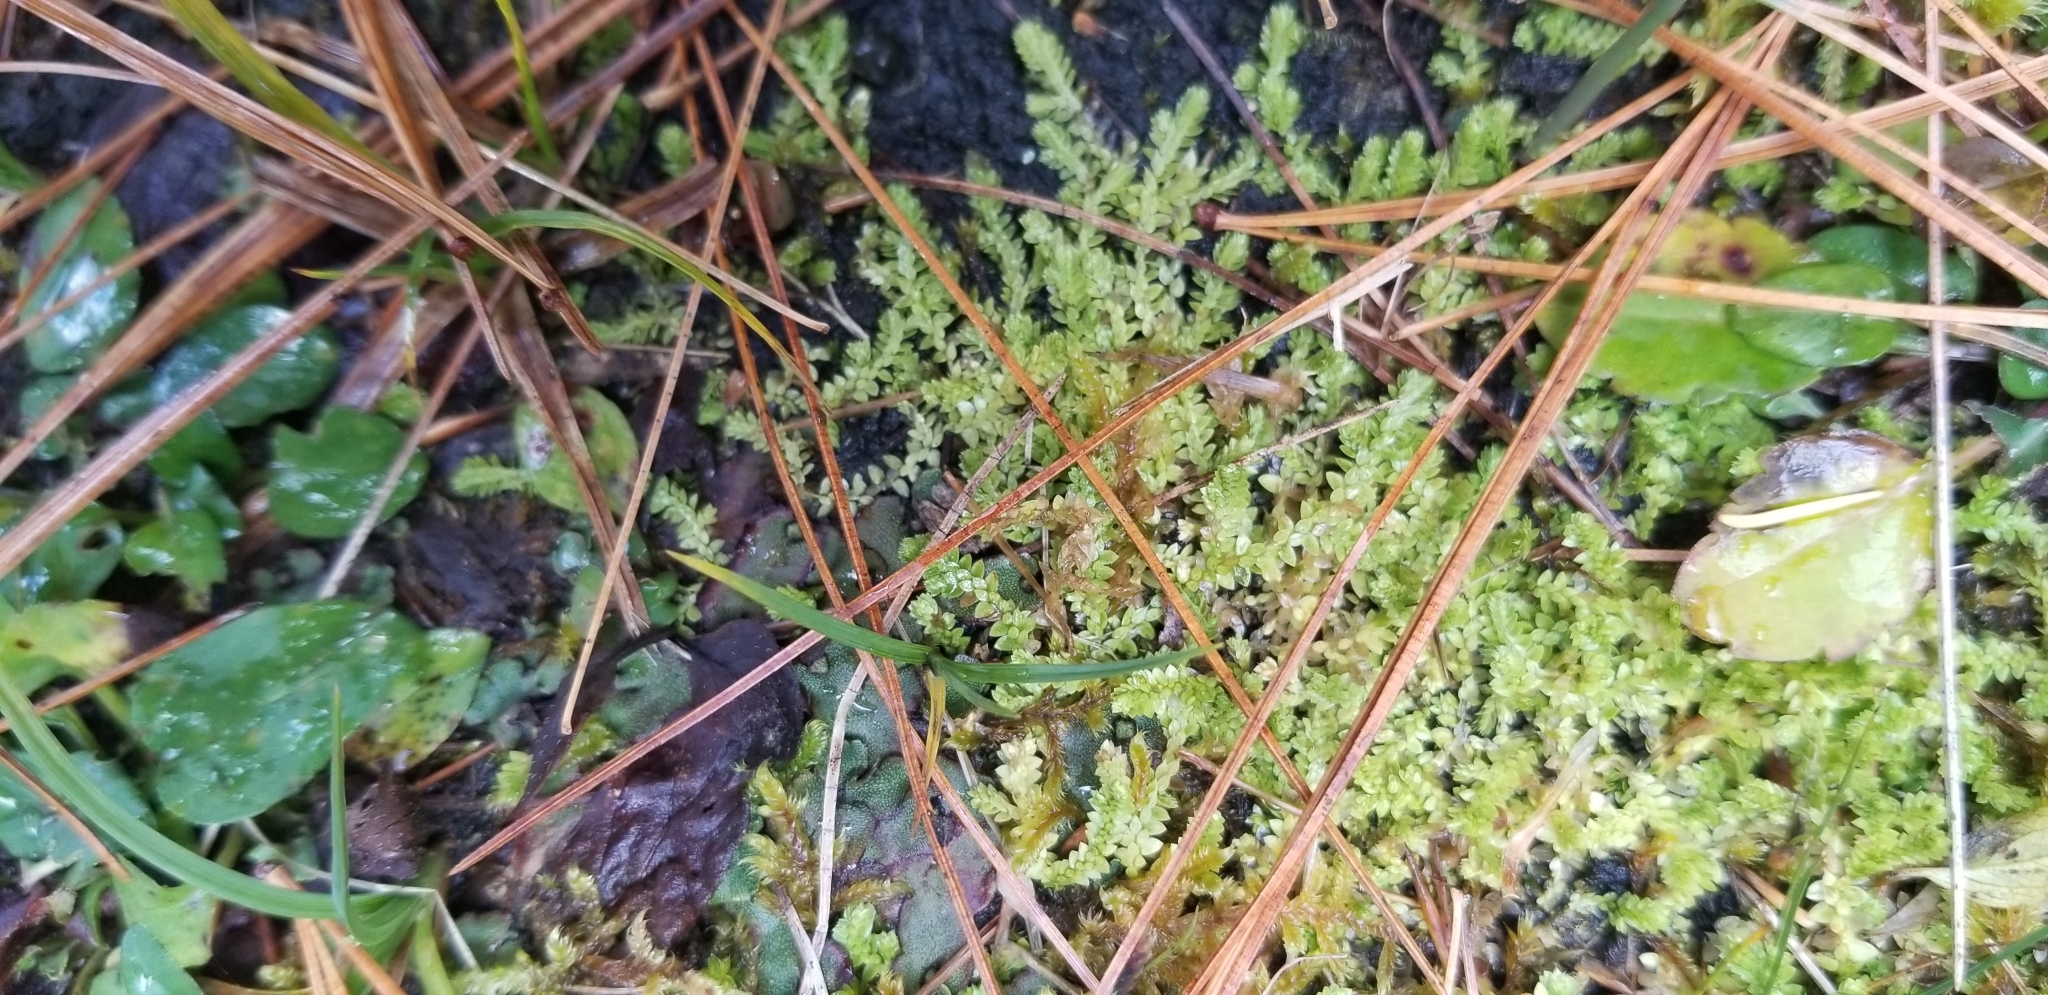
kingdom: Plantae
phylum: Tracheophyta
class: Lycopodiopsida
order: Selaginellales
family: Selaginellaceae
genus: Selaginella
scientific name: Selaginella apoda
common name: Creeping spikemoss
